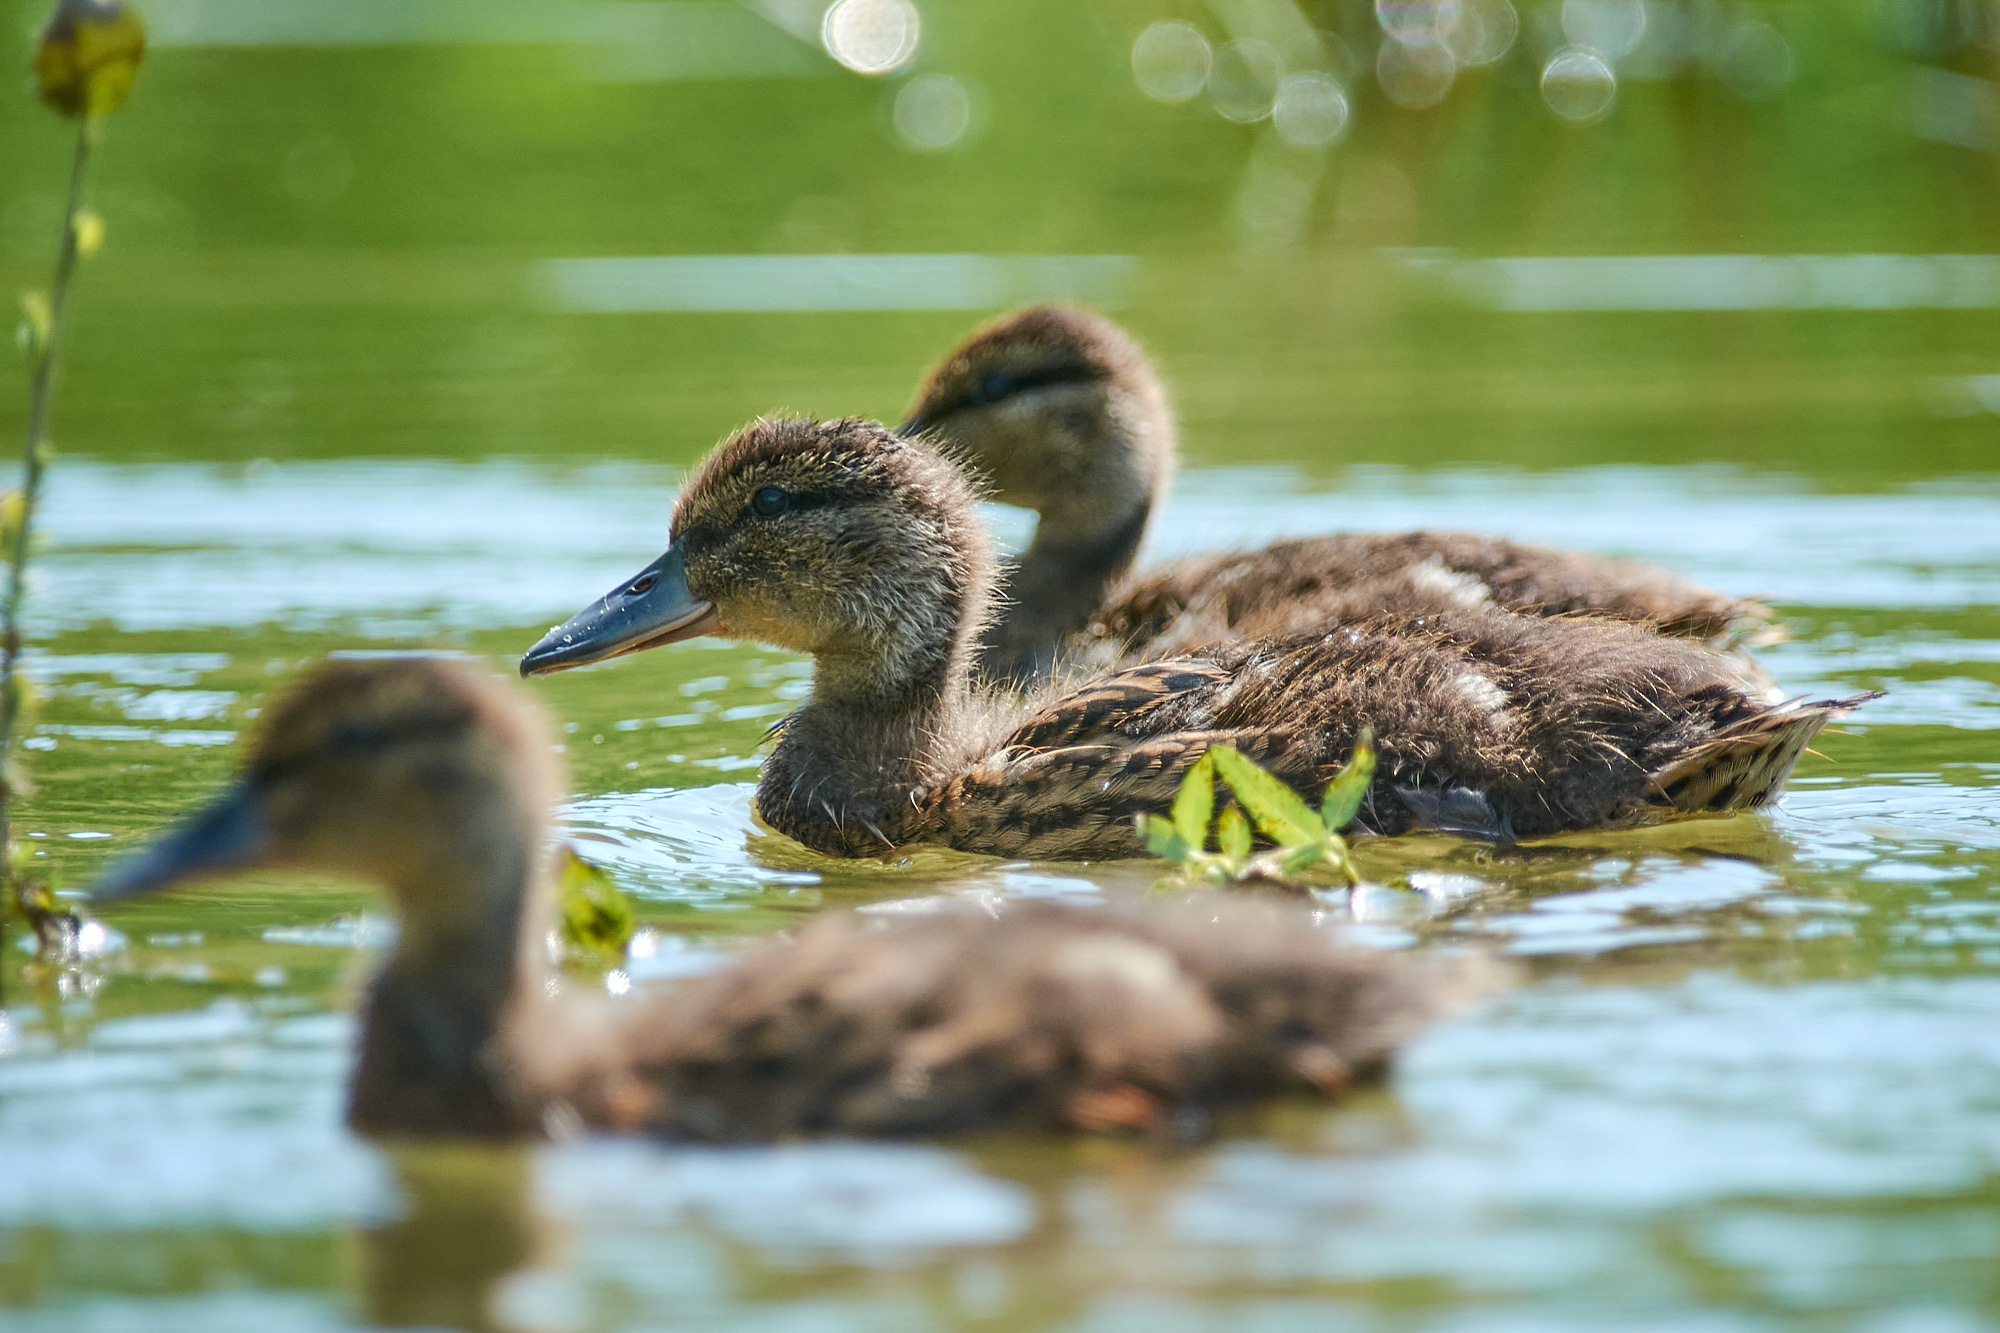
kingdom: Animalia
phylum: Chordata
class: Aves
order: Anseriformes
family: Anatidae
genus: Anas
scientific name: Anas platyrhynchos
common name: Mallard
